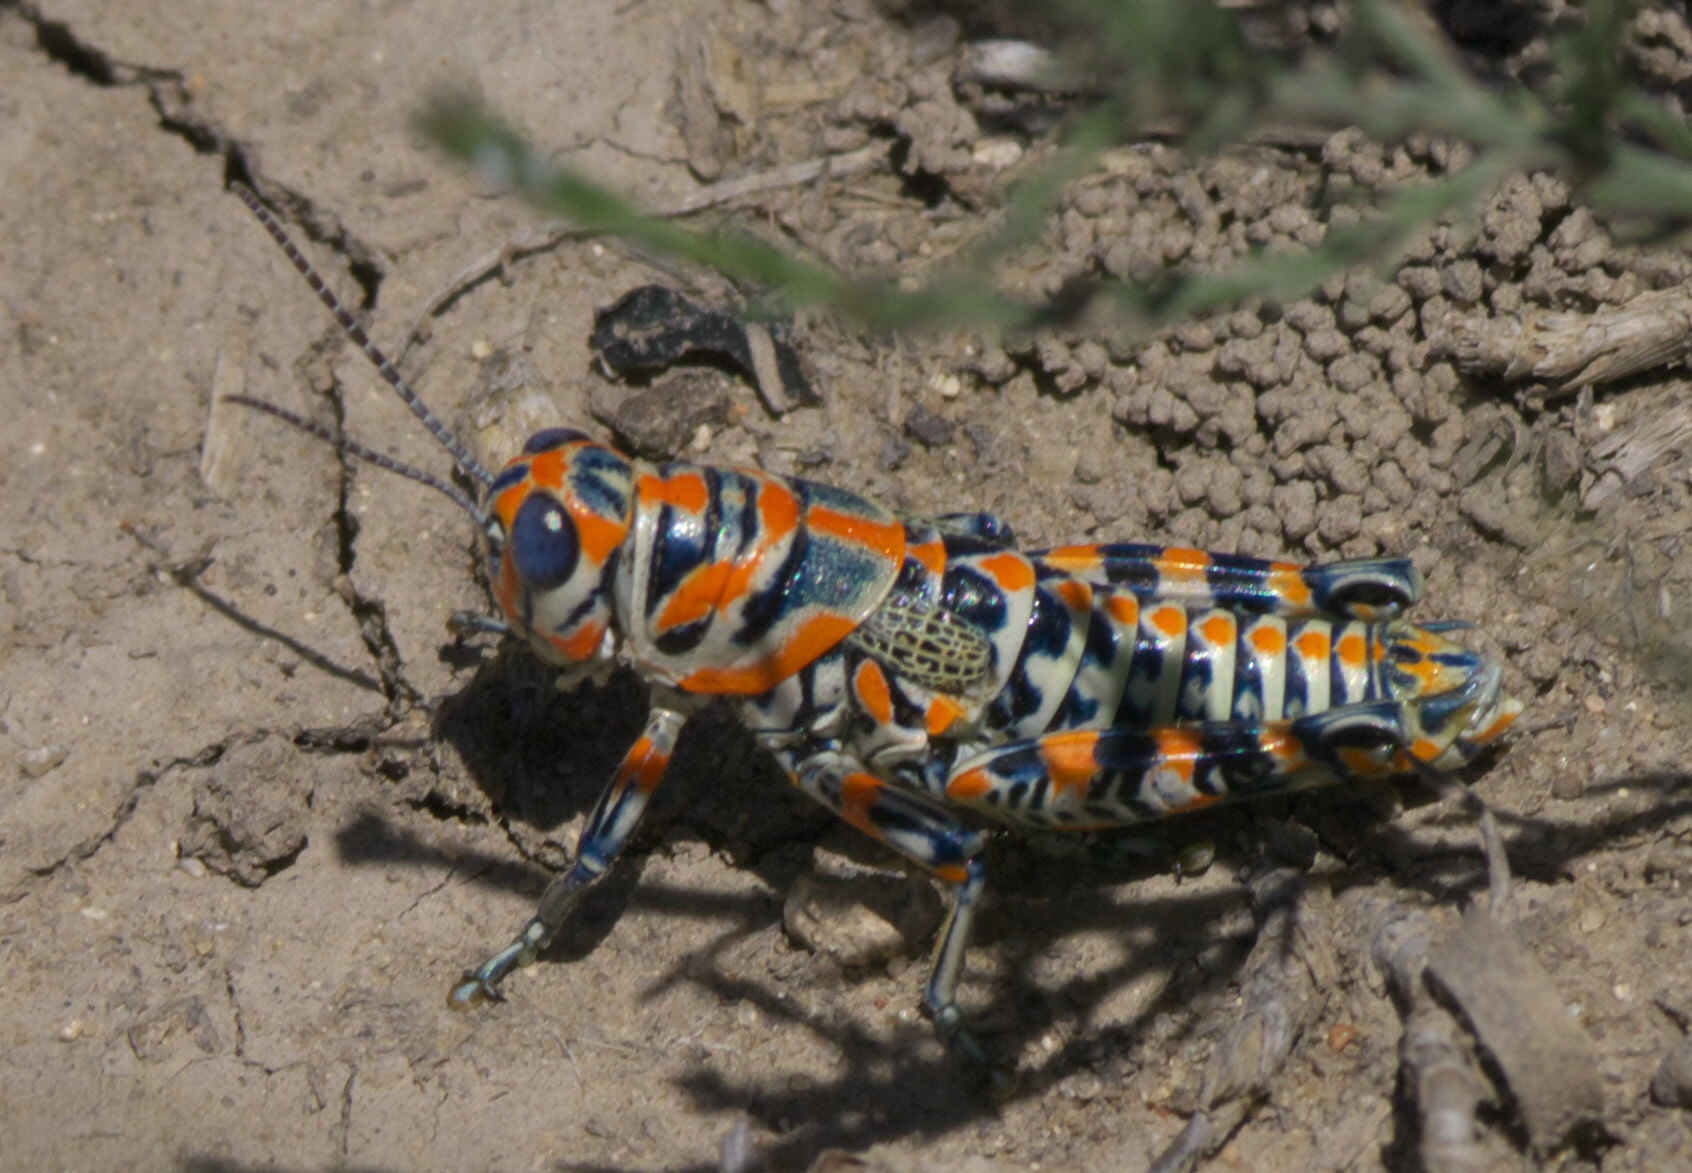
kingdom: Animalia
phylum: Arthropoda
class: Insecta
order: Orthoptera
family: Acrididae
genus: Dactylotum
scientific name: Dactylotum bicolor
